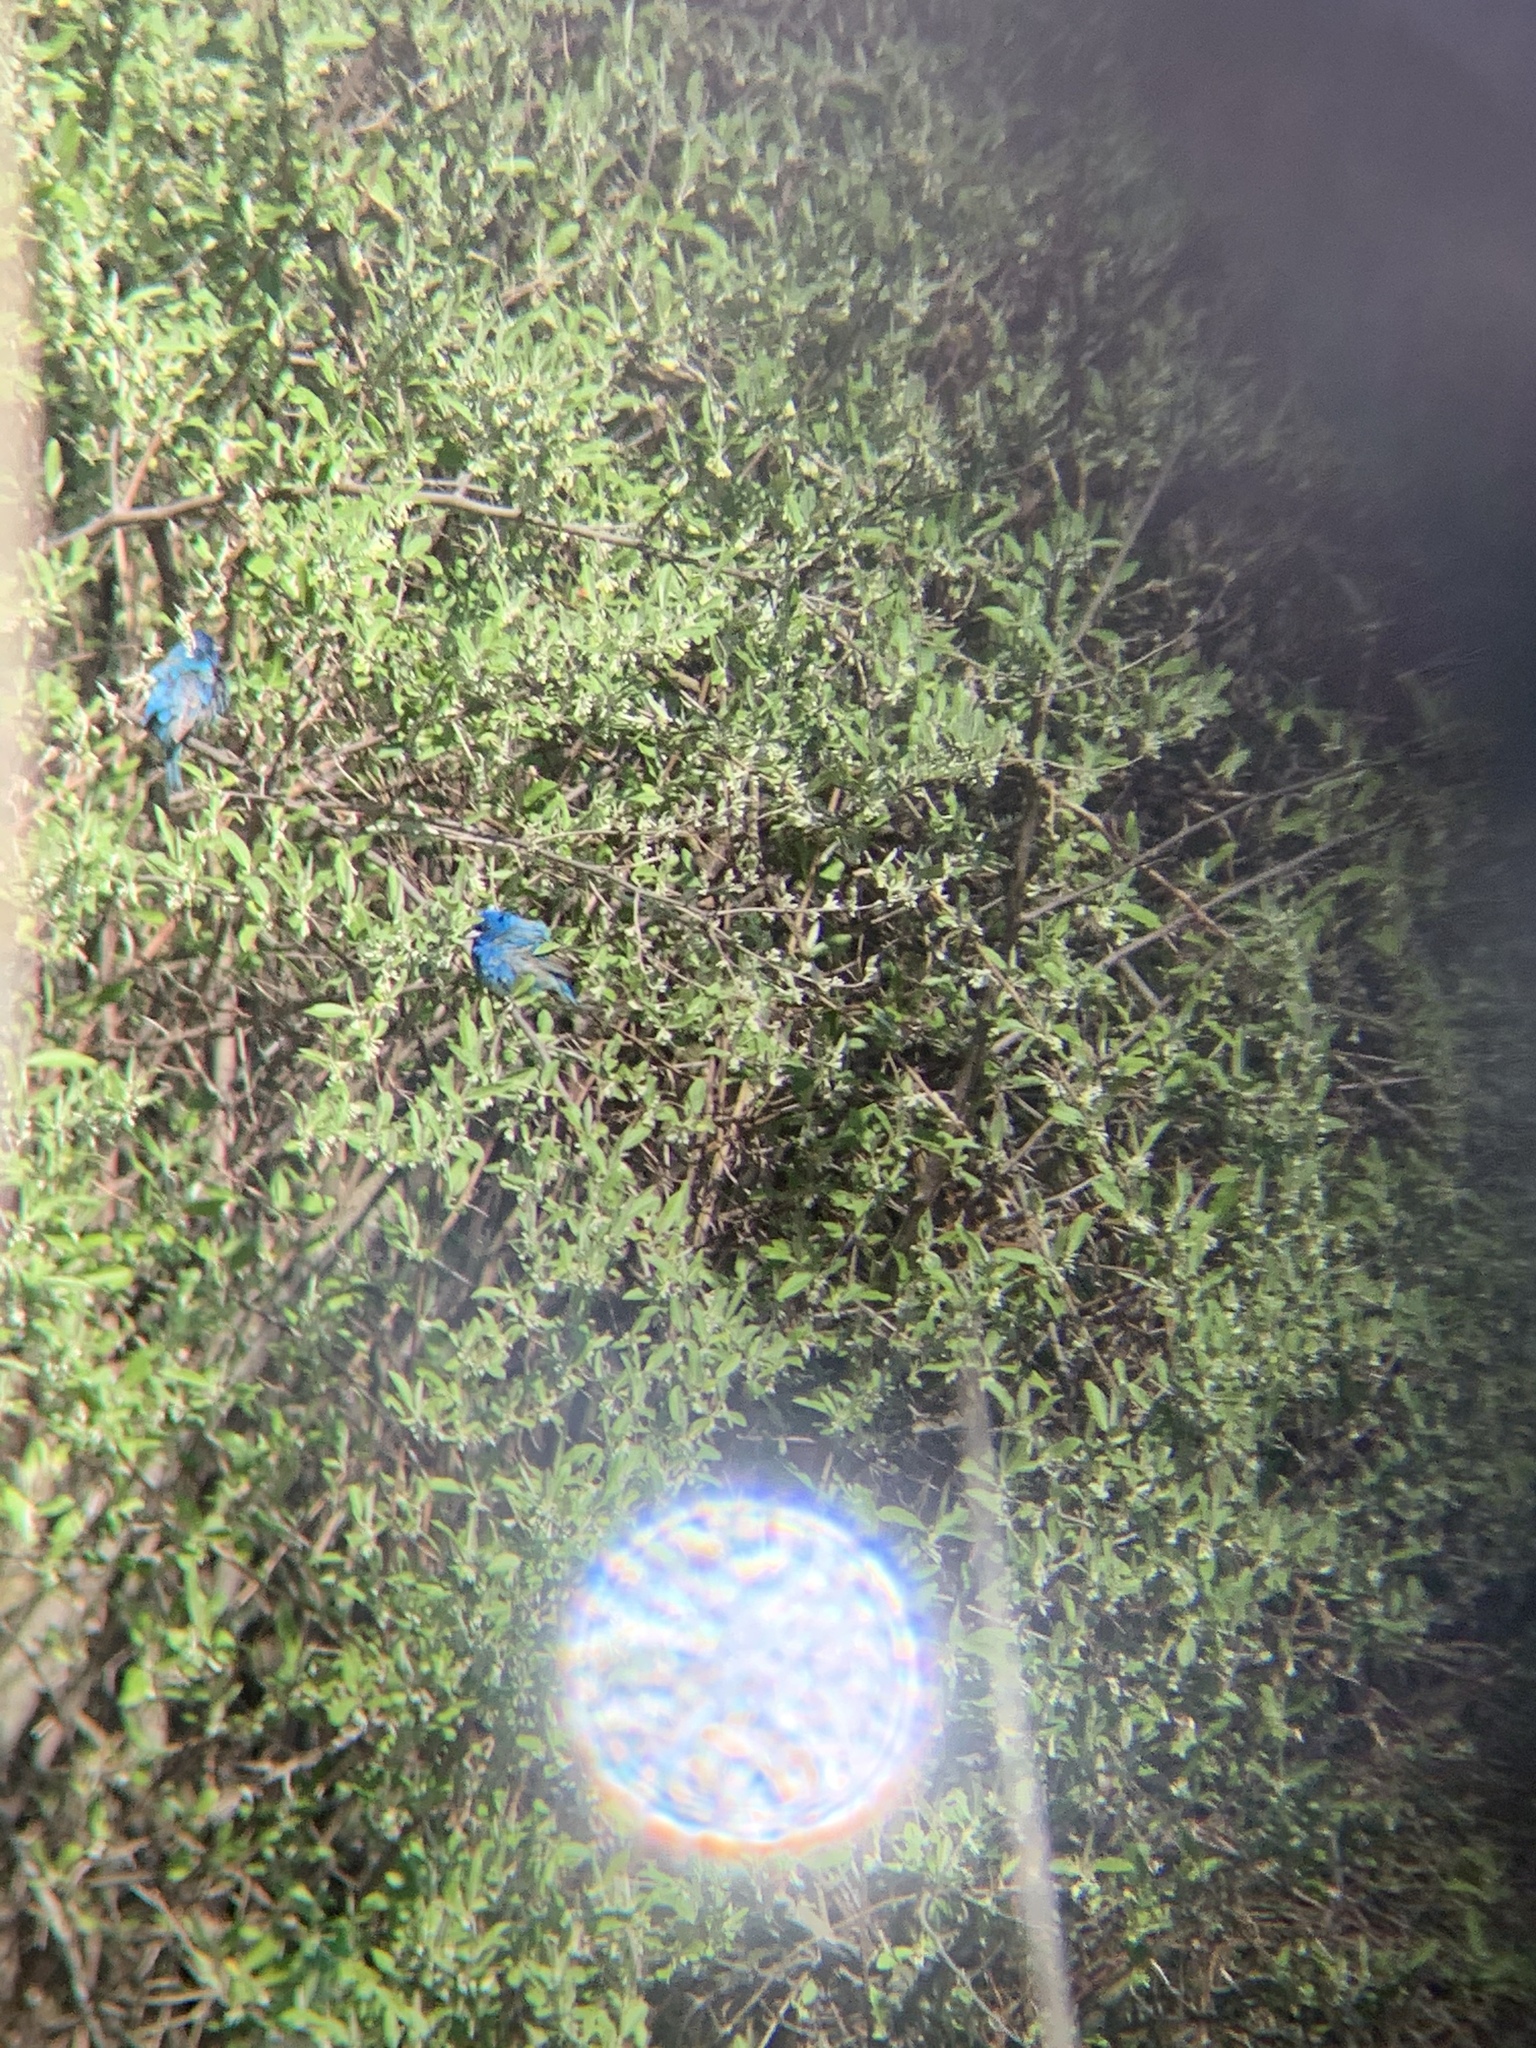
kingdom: Animalia
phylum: Chordata
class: Aves
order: Passeriformes
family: Cardinalidae
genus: Passerina
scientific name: Passerina cyanea
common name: Indigo bunting
